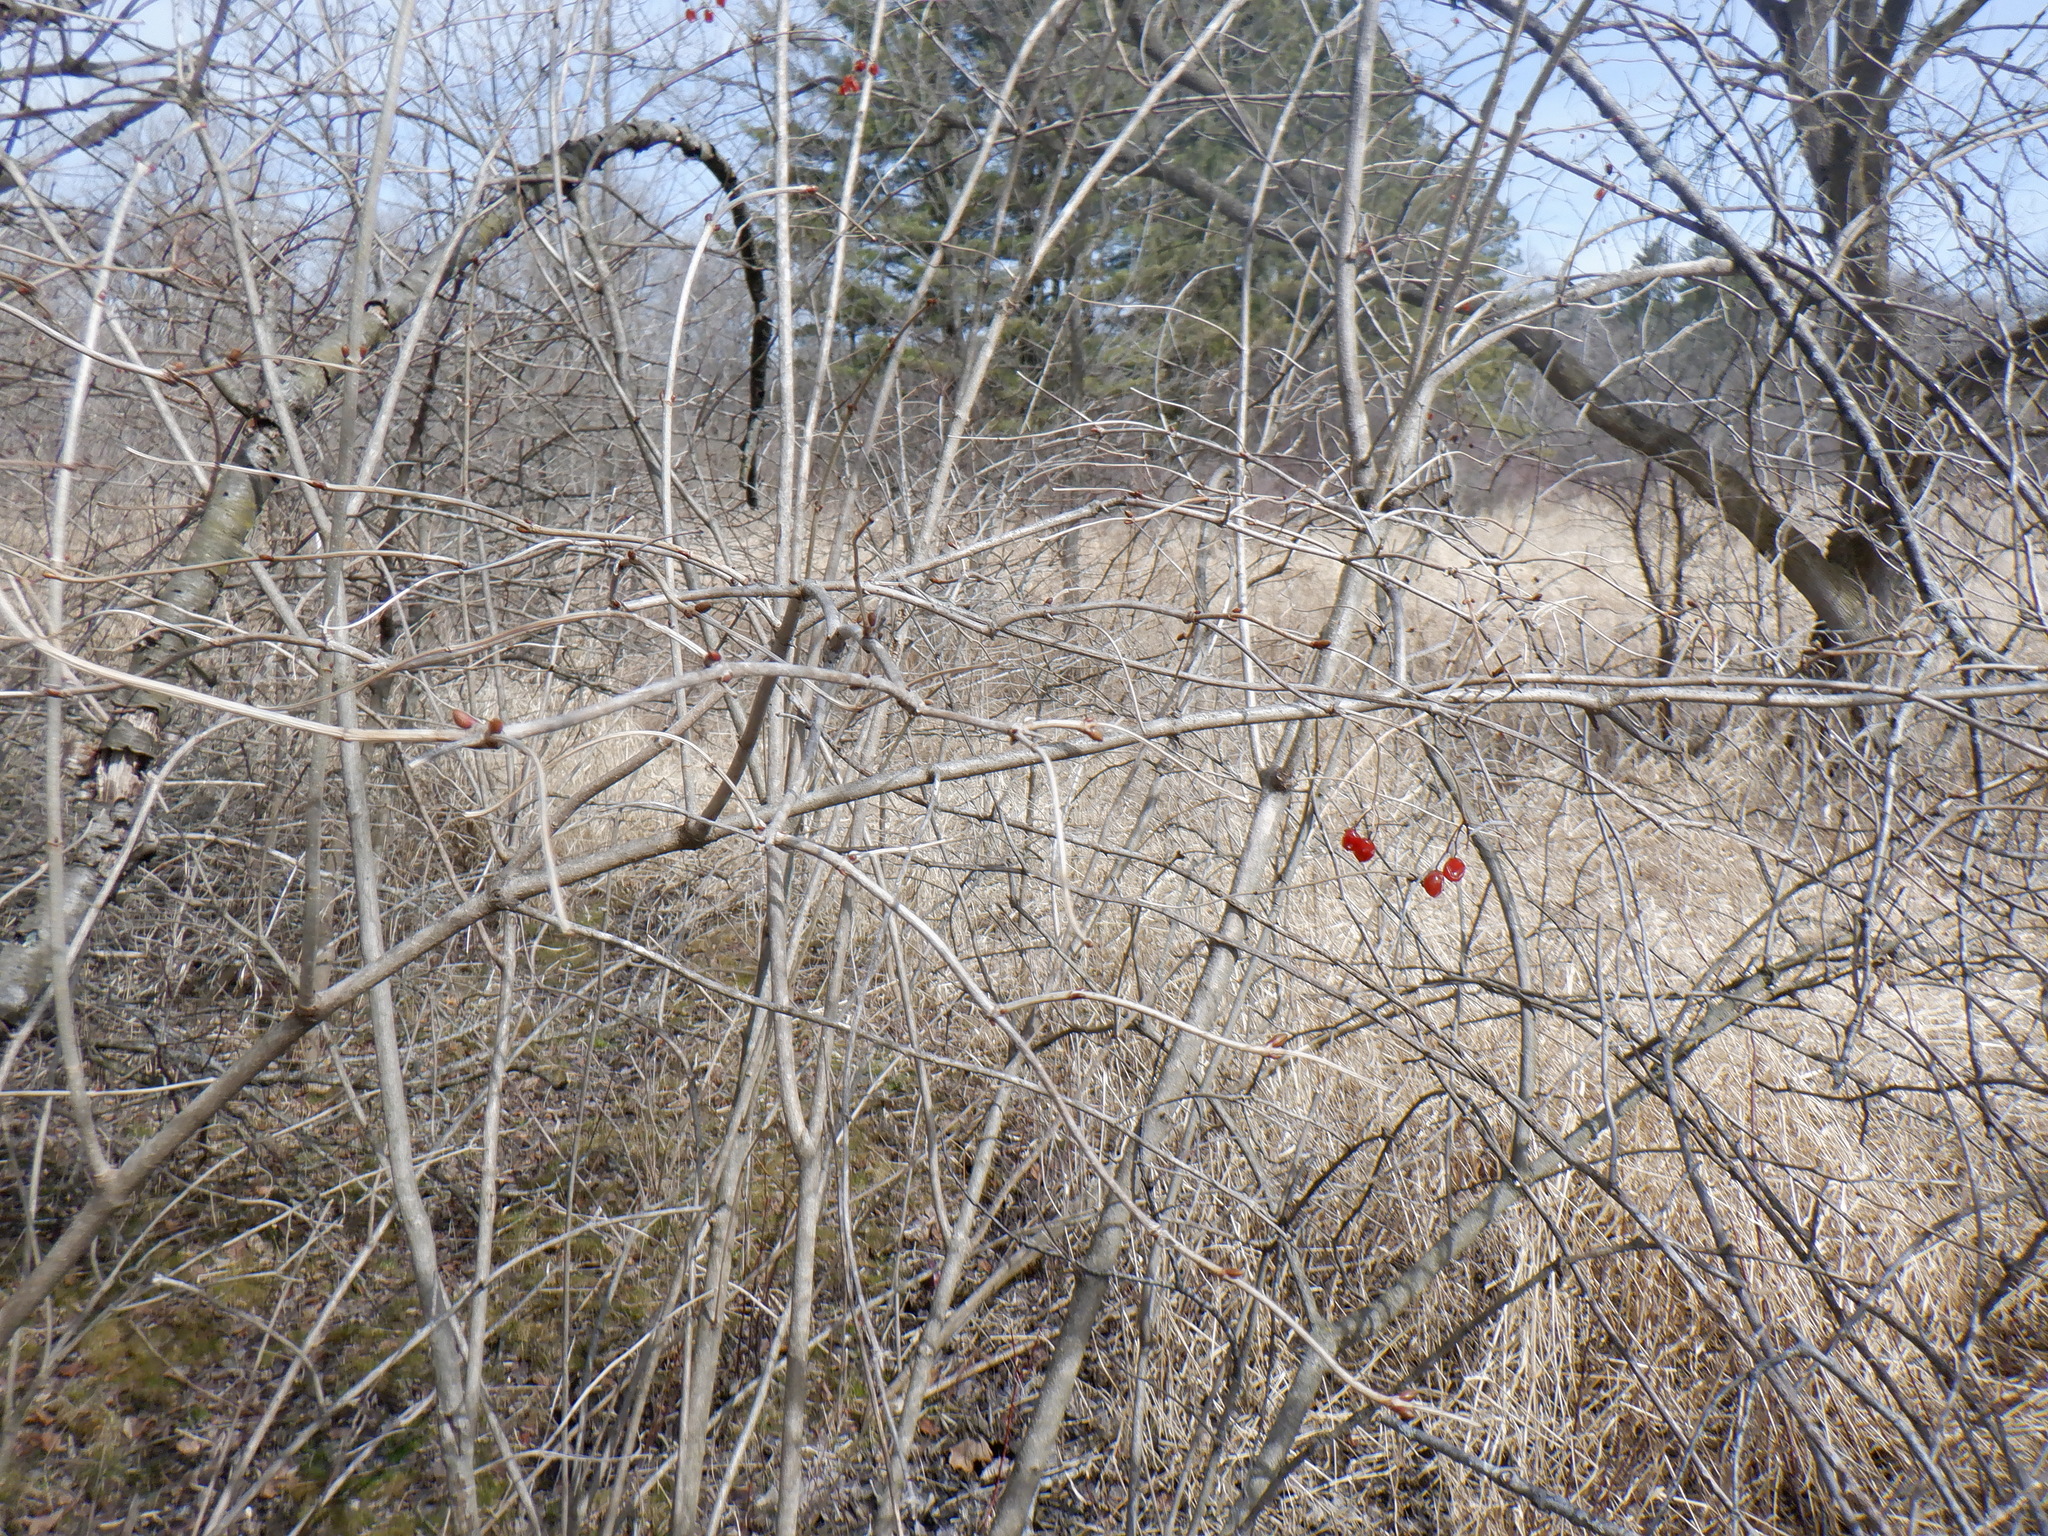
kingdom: Plantae
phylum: Tracheophyta
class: Magnoliopsida
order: Dipsacales
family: Viburnaceae
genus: Viburnum
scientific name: Viburnum opulus
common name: Guelder-rose
